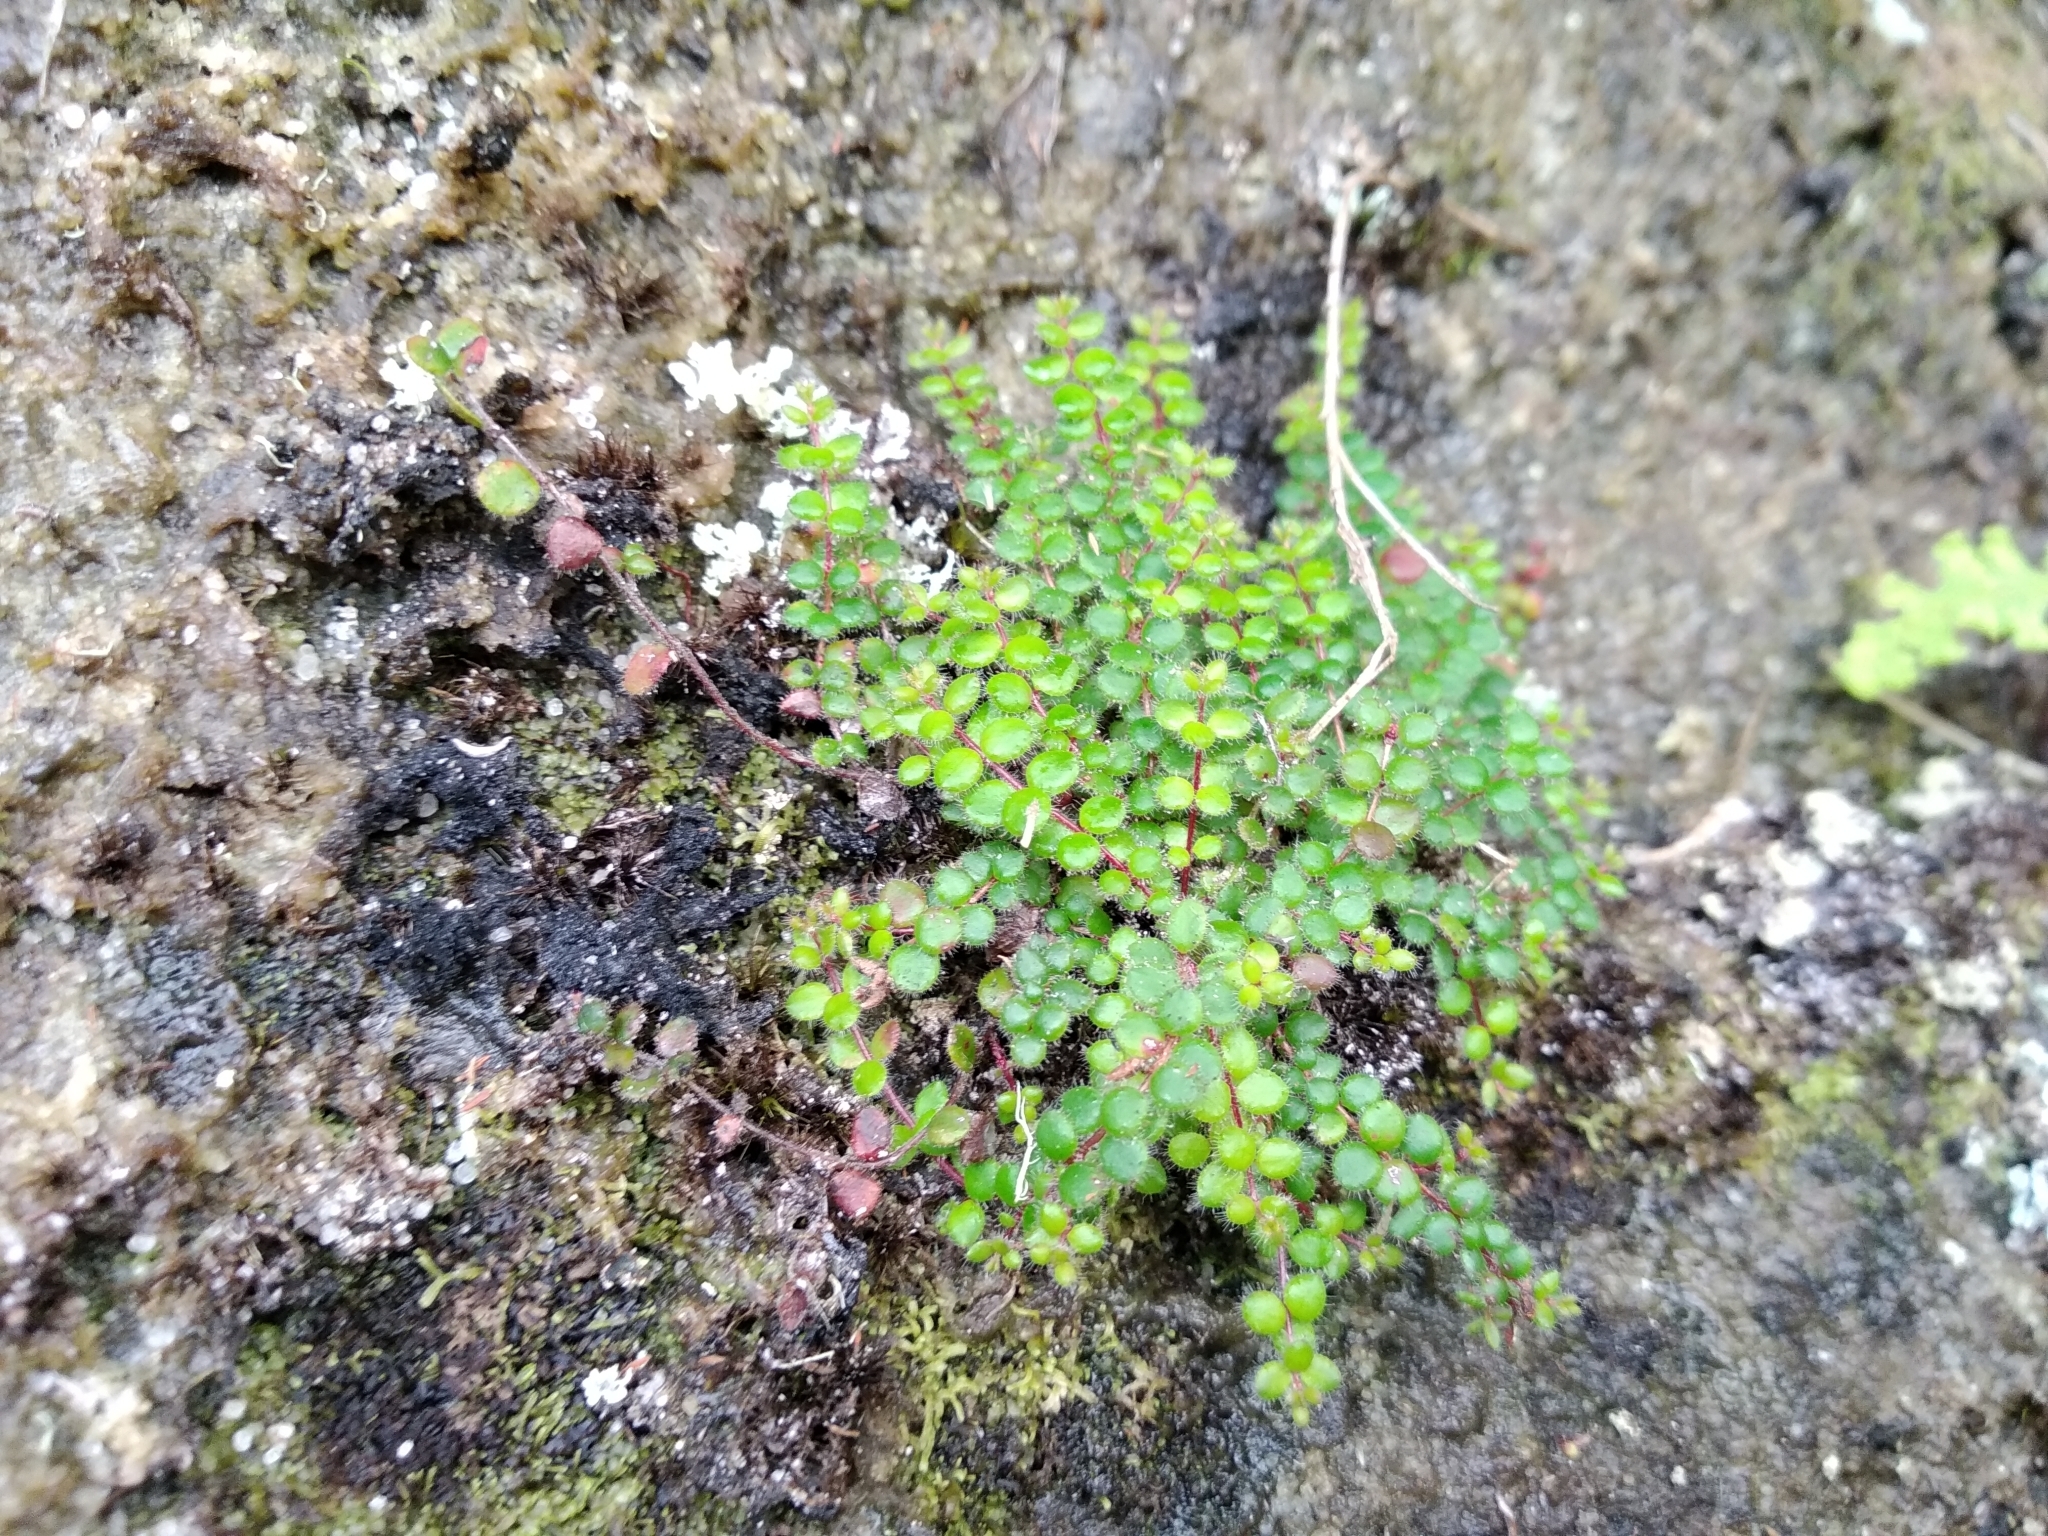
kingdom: Plantae
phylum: Tracheophyta
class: Magnoliopsida
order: Ericales
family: Ericaceae
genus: Erica
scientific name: Erica oxycoccifolia
